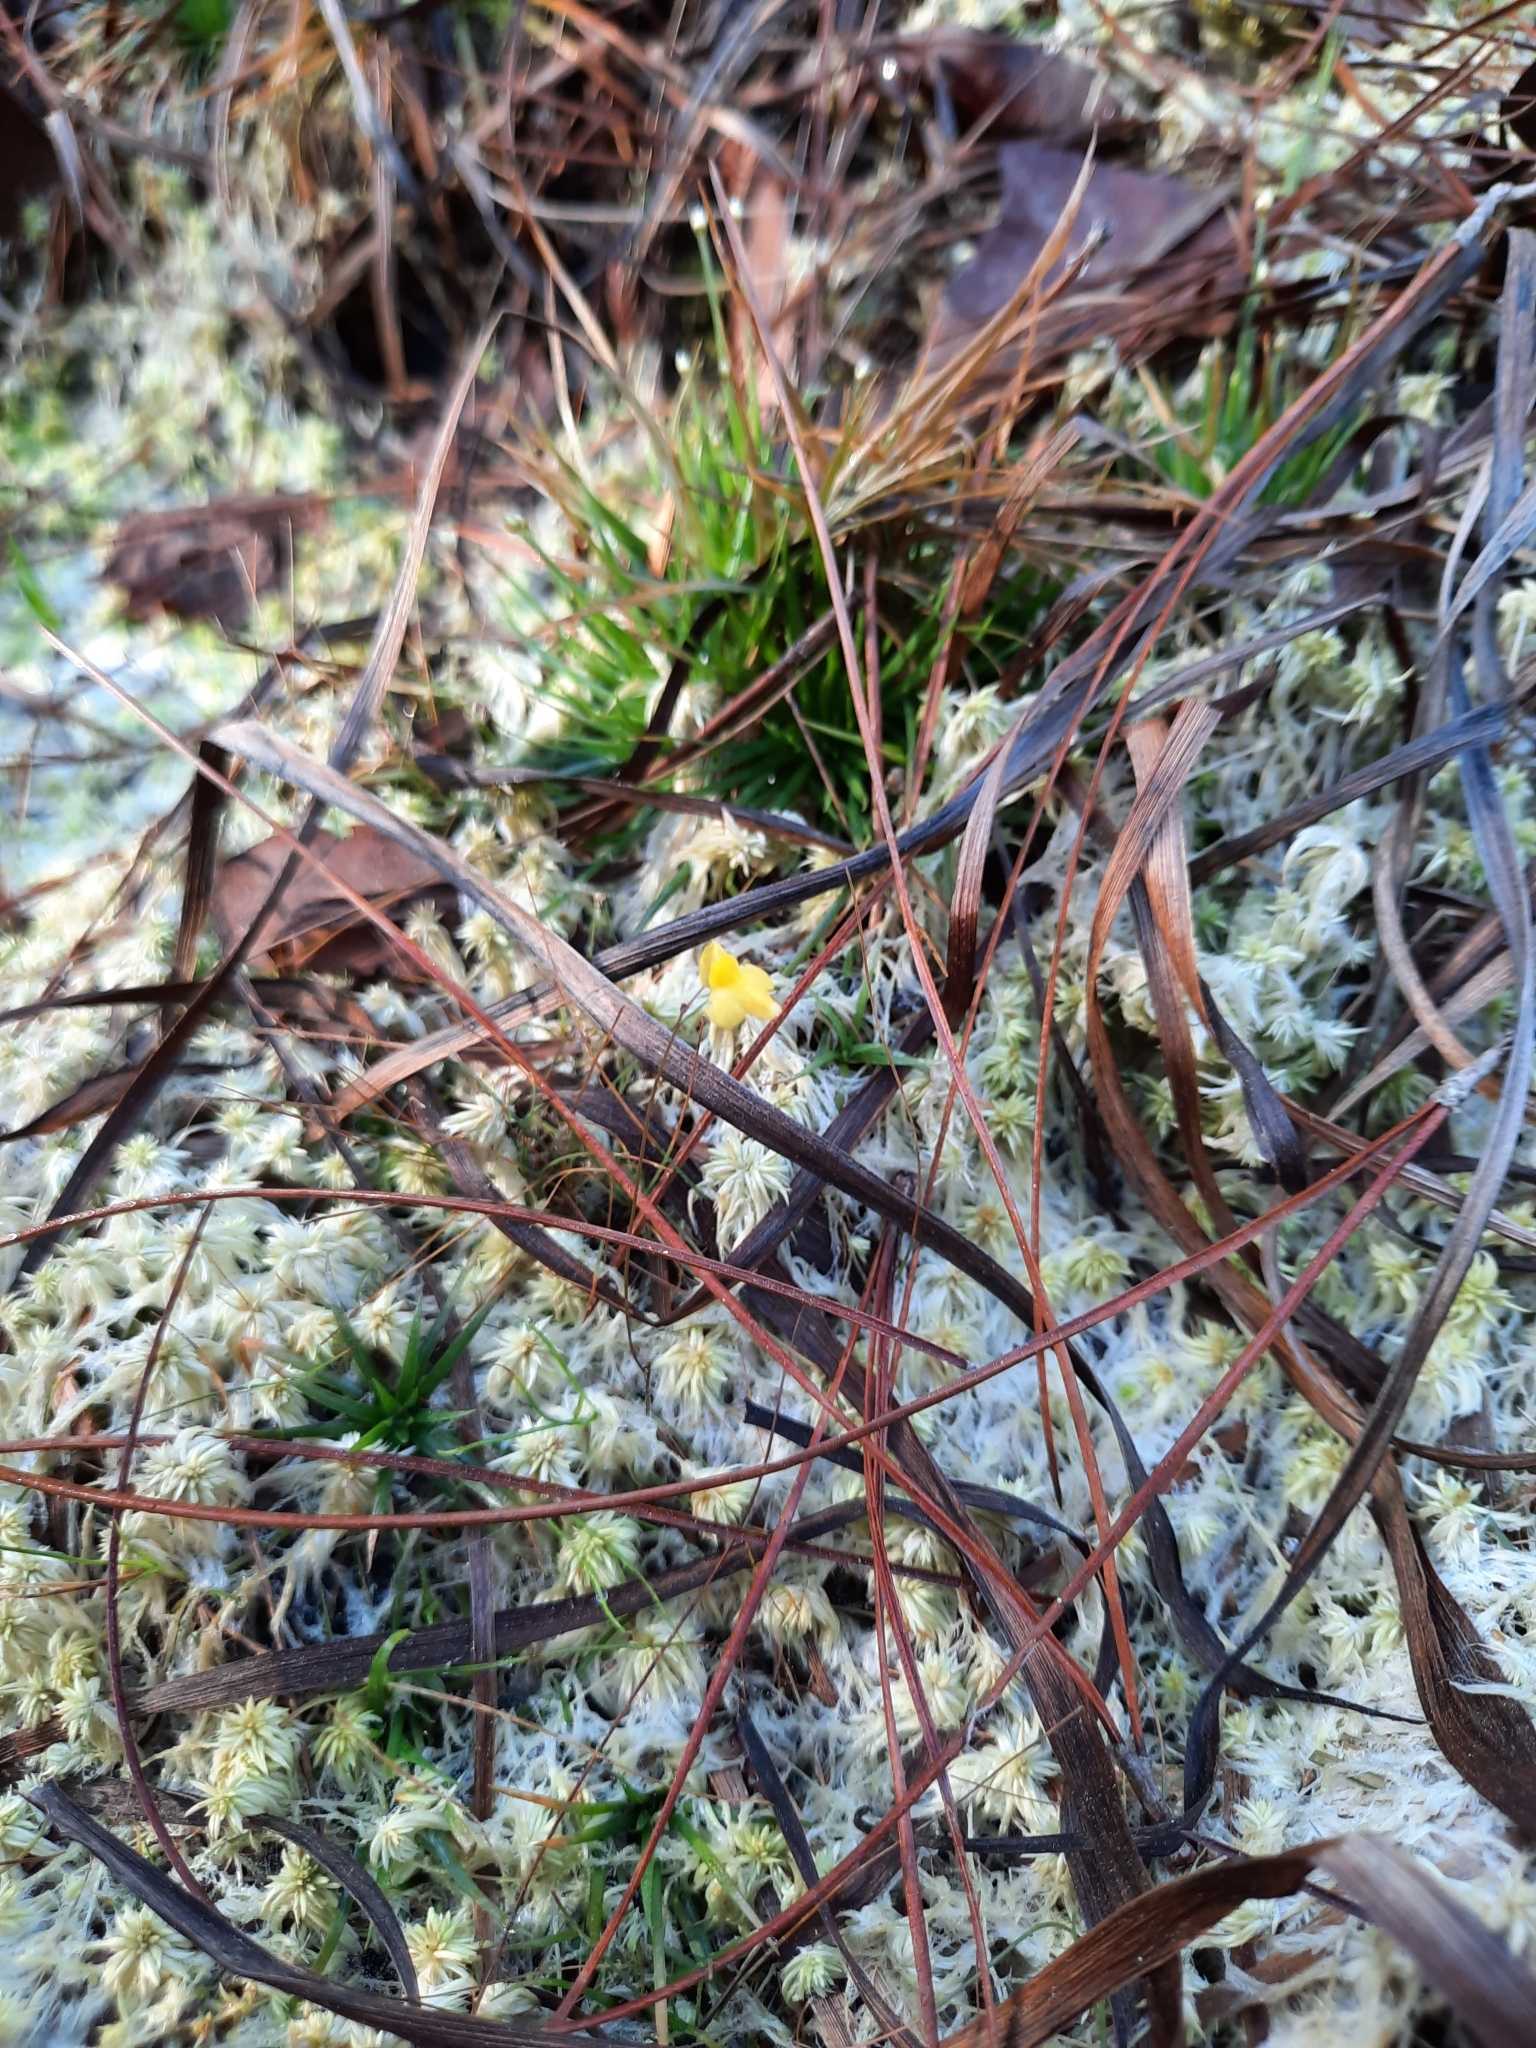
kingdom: Plantae
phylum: Tracheophyta
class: Magnoliopsida
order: Lamiales
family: Lentibulariaceae
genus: Utricularia
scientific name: Utricularia subulata
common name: Tiny bladderwort
